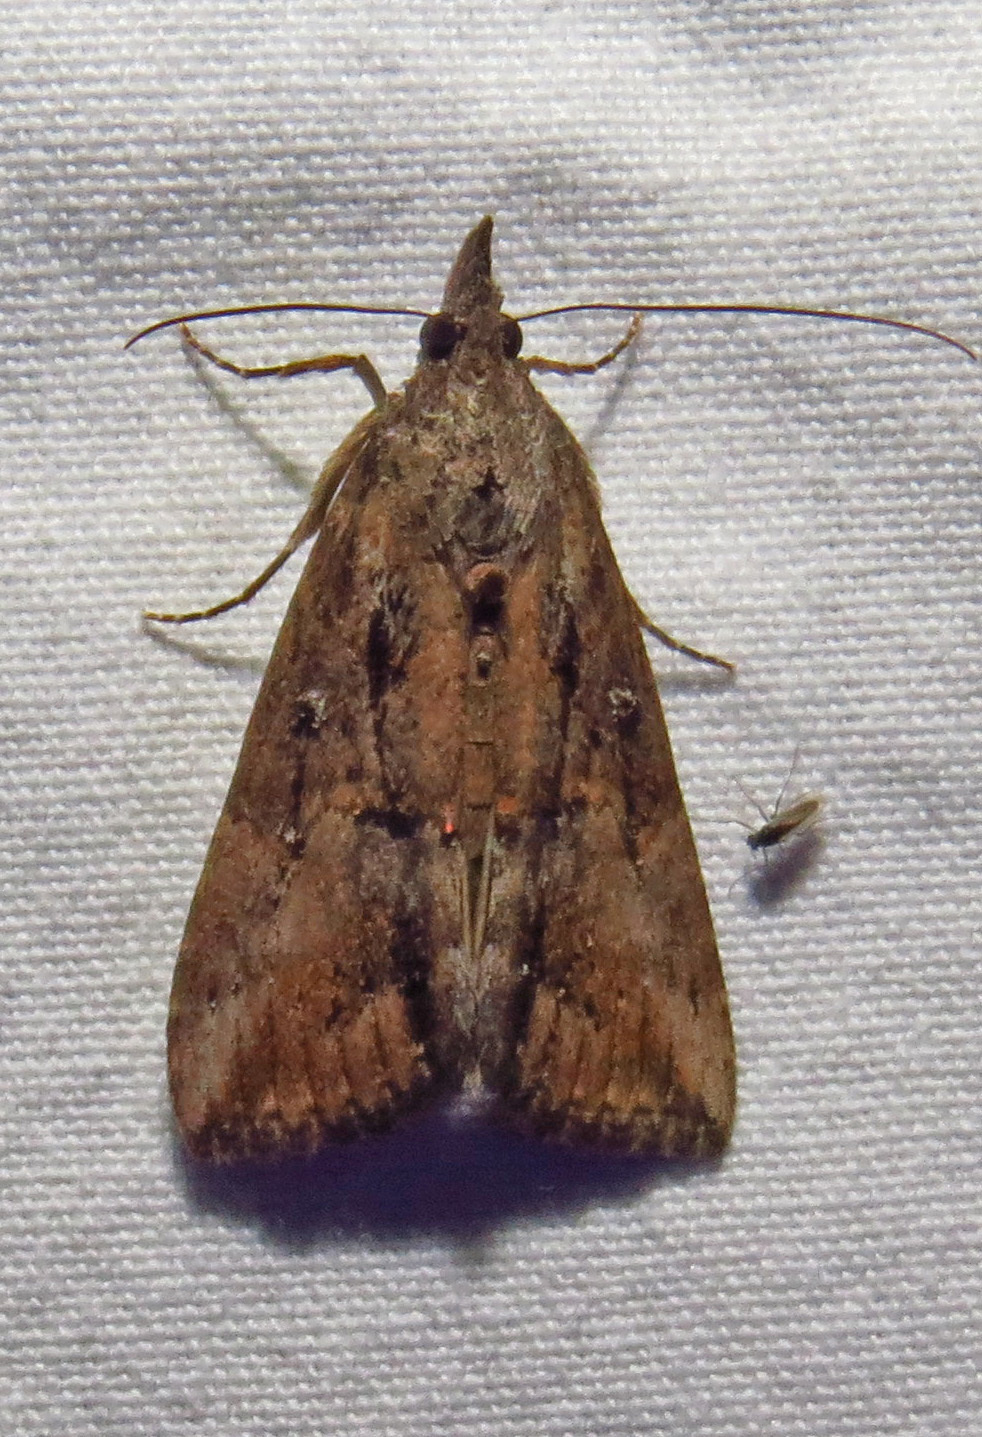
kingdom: Animalia
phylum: Arthropoda
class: Insecta
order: Lepidoptera
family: Erebidae
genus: Hypena
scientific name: Hypena scabra
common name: Green cloverworm
